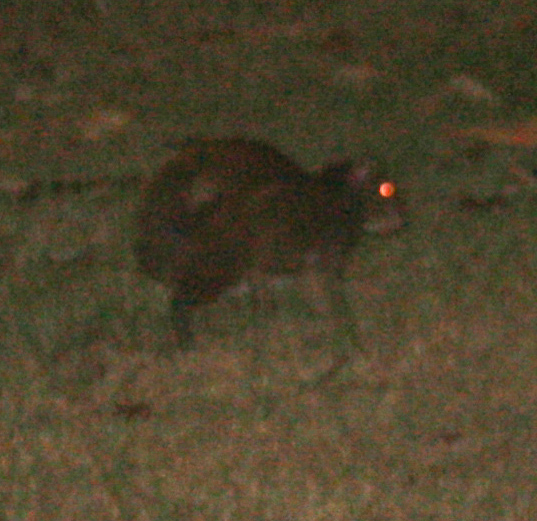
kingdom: Animalia
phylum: Chordata
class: Mammalia
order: Rodentia
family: Dasyproctidae
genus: Dasyprocta
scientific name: Dasyprocta punctata
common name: Central american agouti
